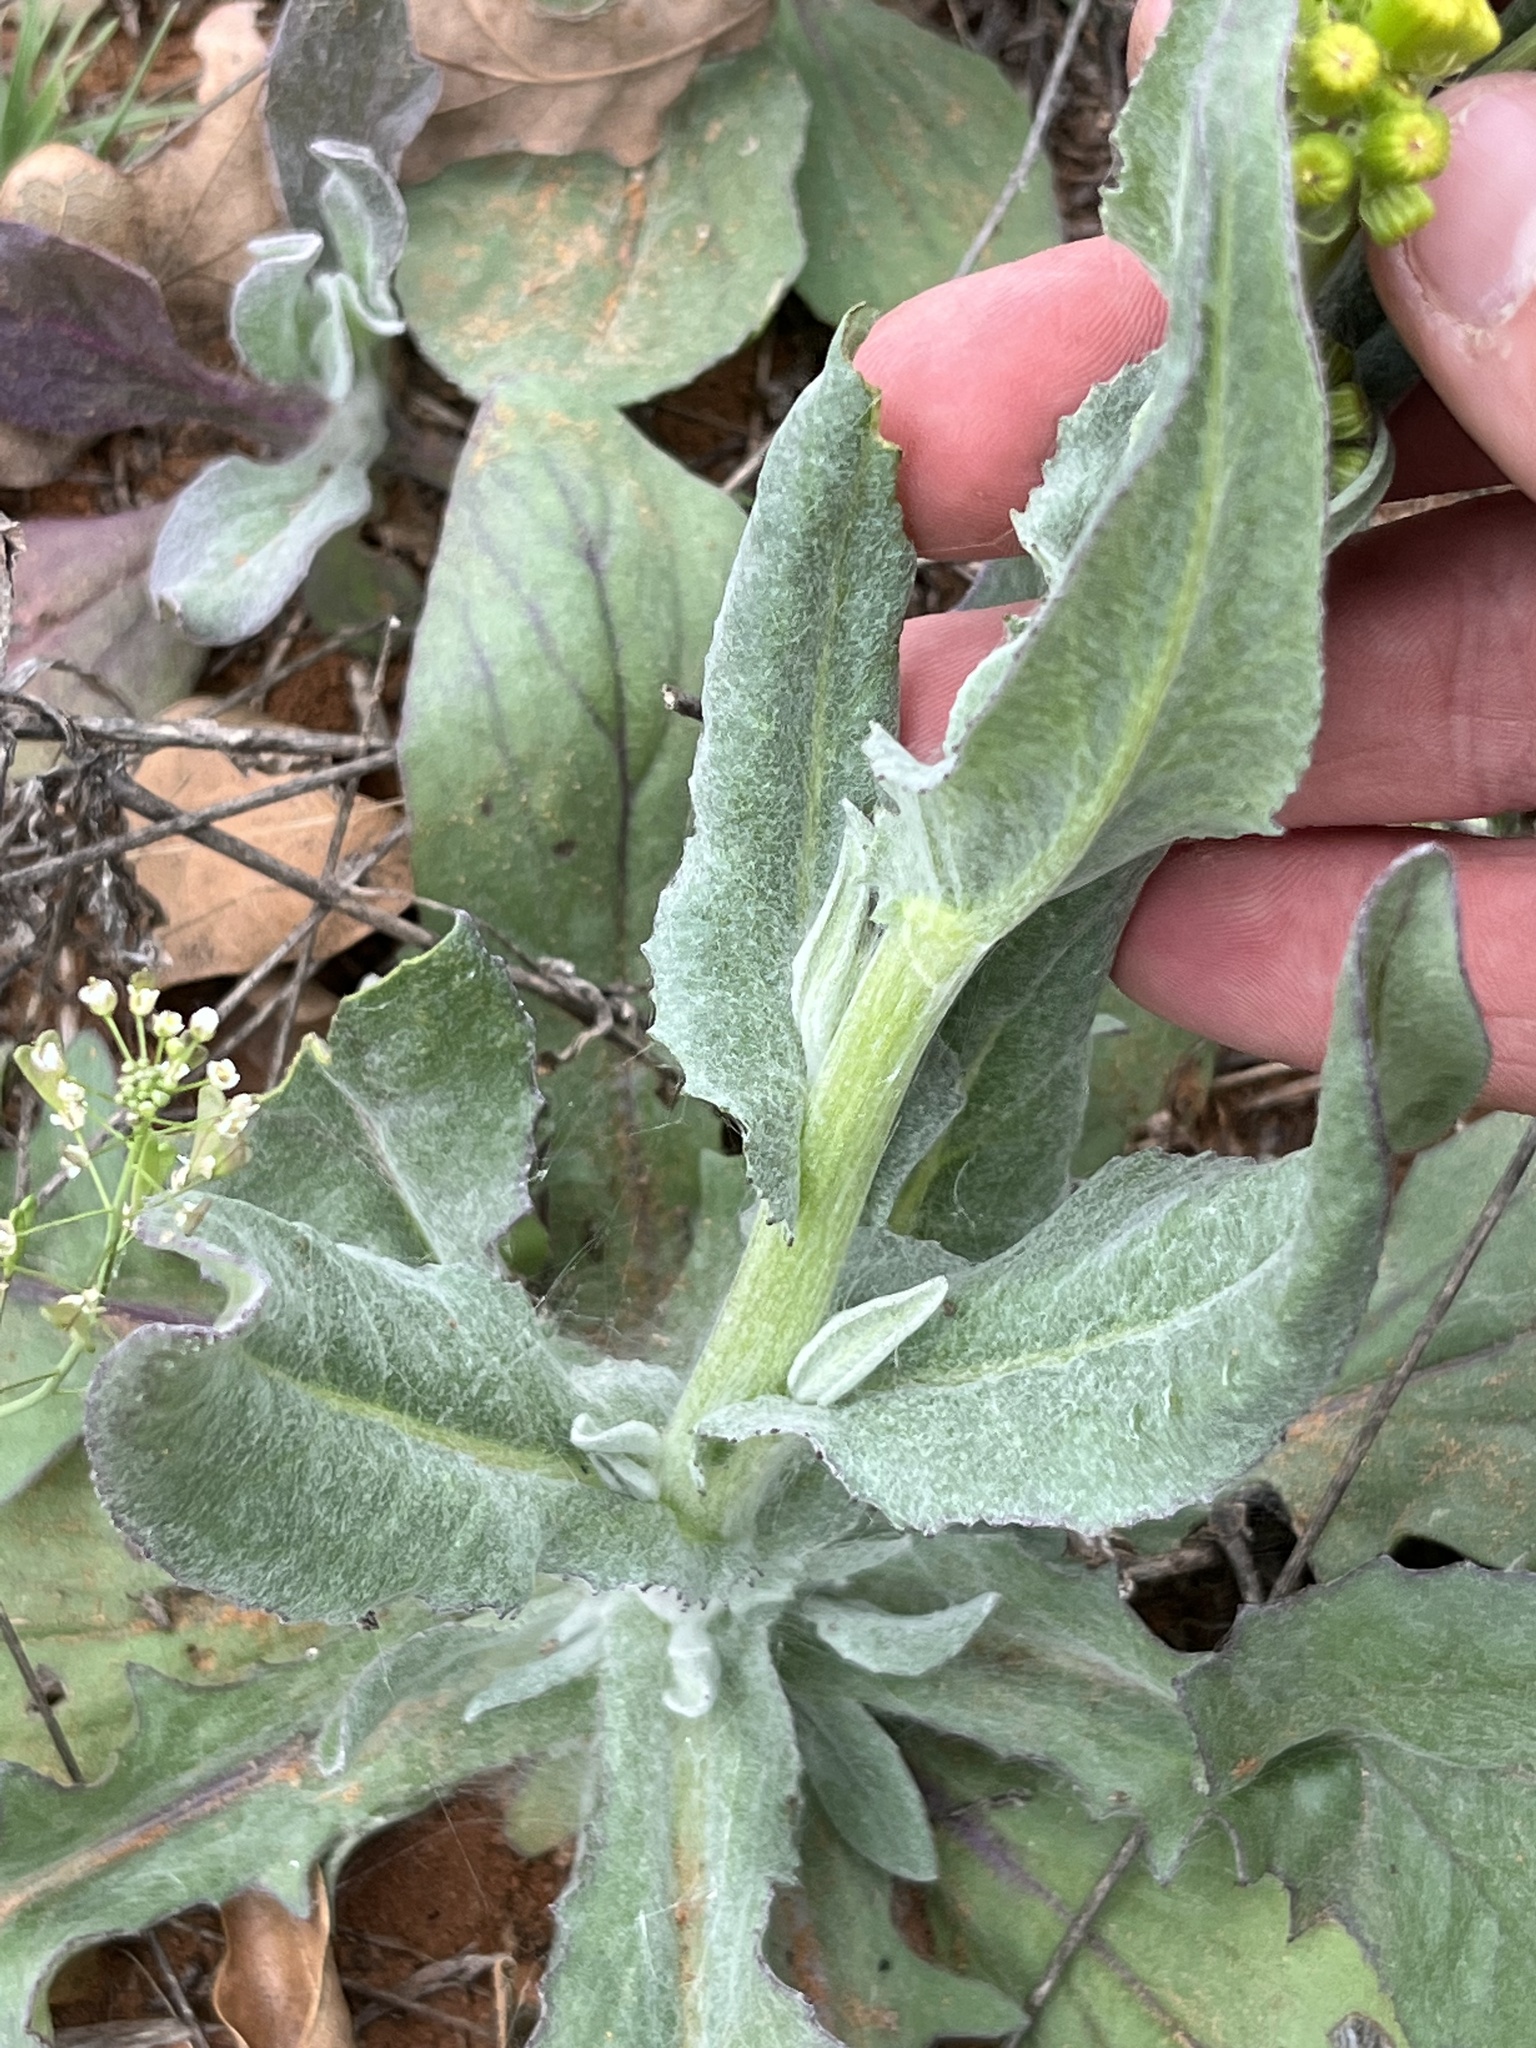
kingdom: Plantae
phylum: Tracheophyta
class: Magnoliopsida
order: Asterales
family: Asteraceae
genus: Senecio
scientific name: Senecio ampullaceus
